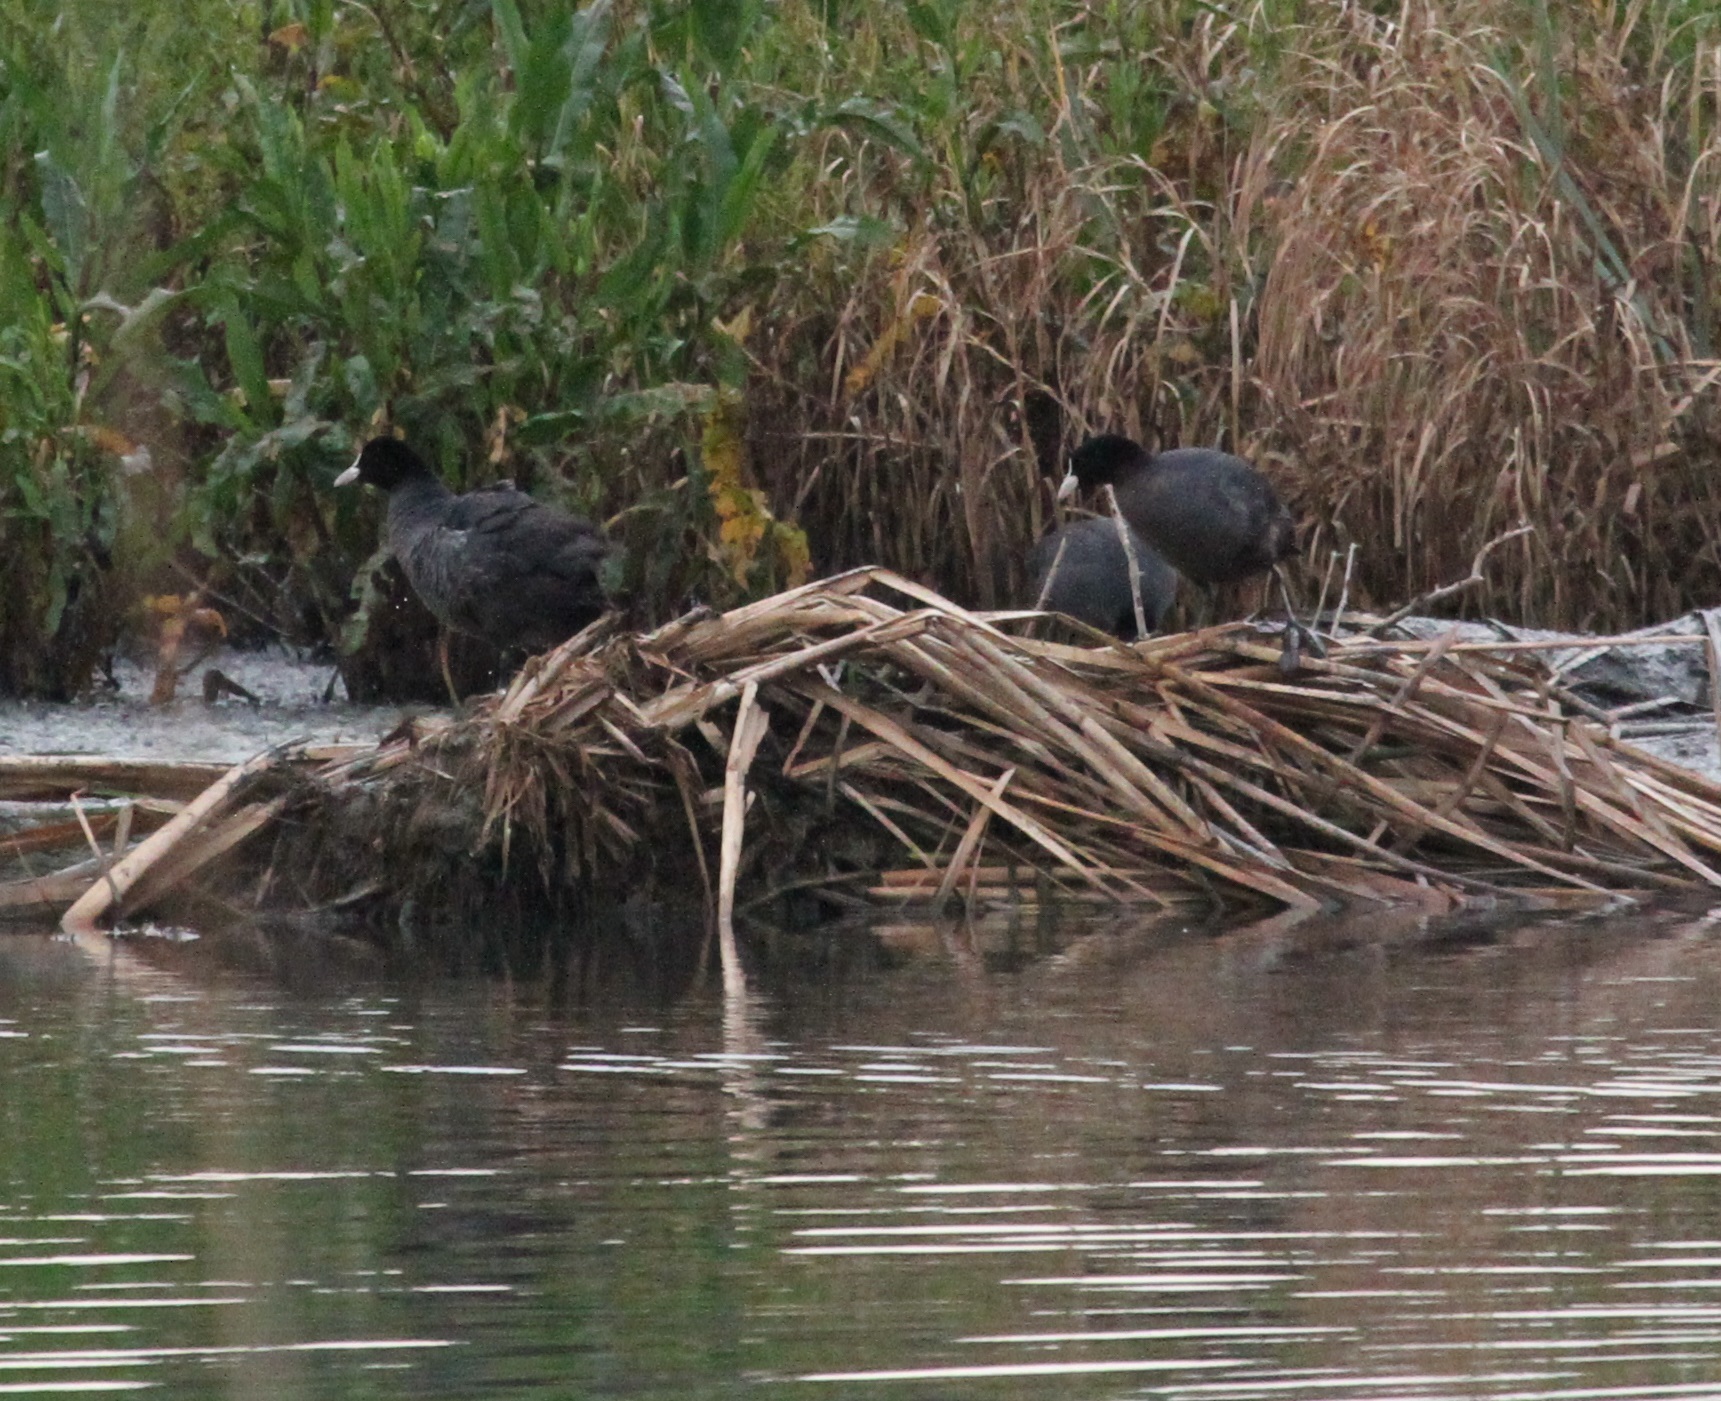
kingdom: Animalia
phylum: Chordata
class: Aves
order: Gruiformes
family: Rallidae
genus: Fulica
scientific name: Fulica atra
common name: Eurasian coot
